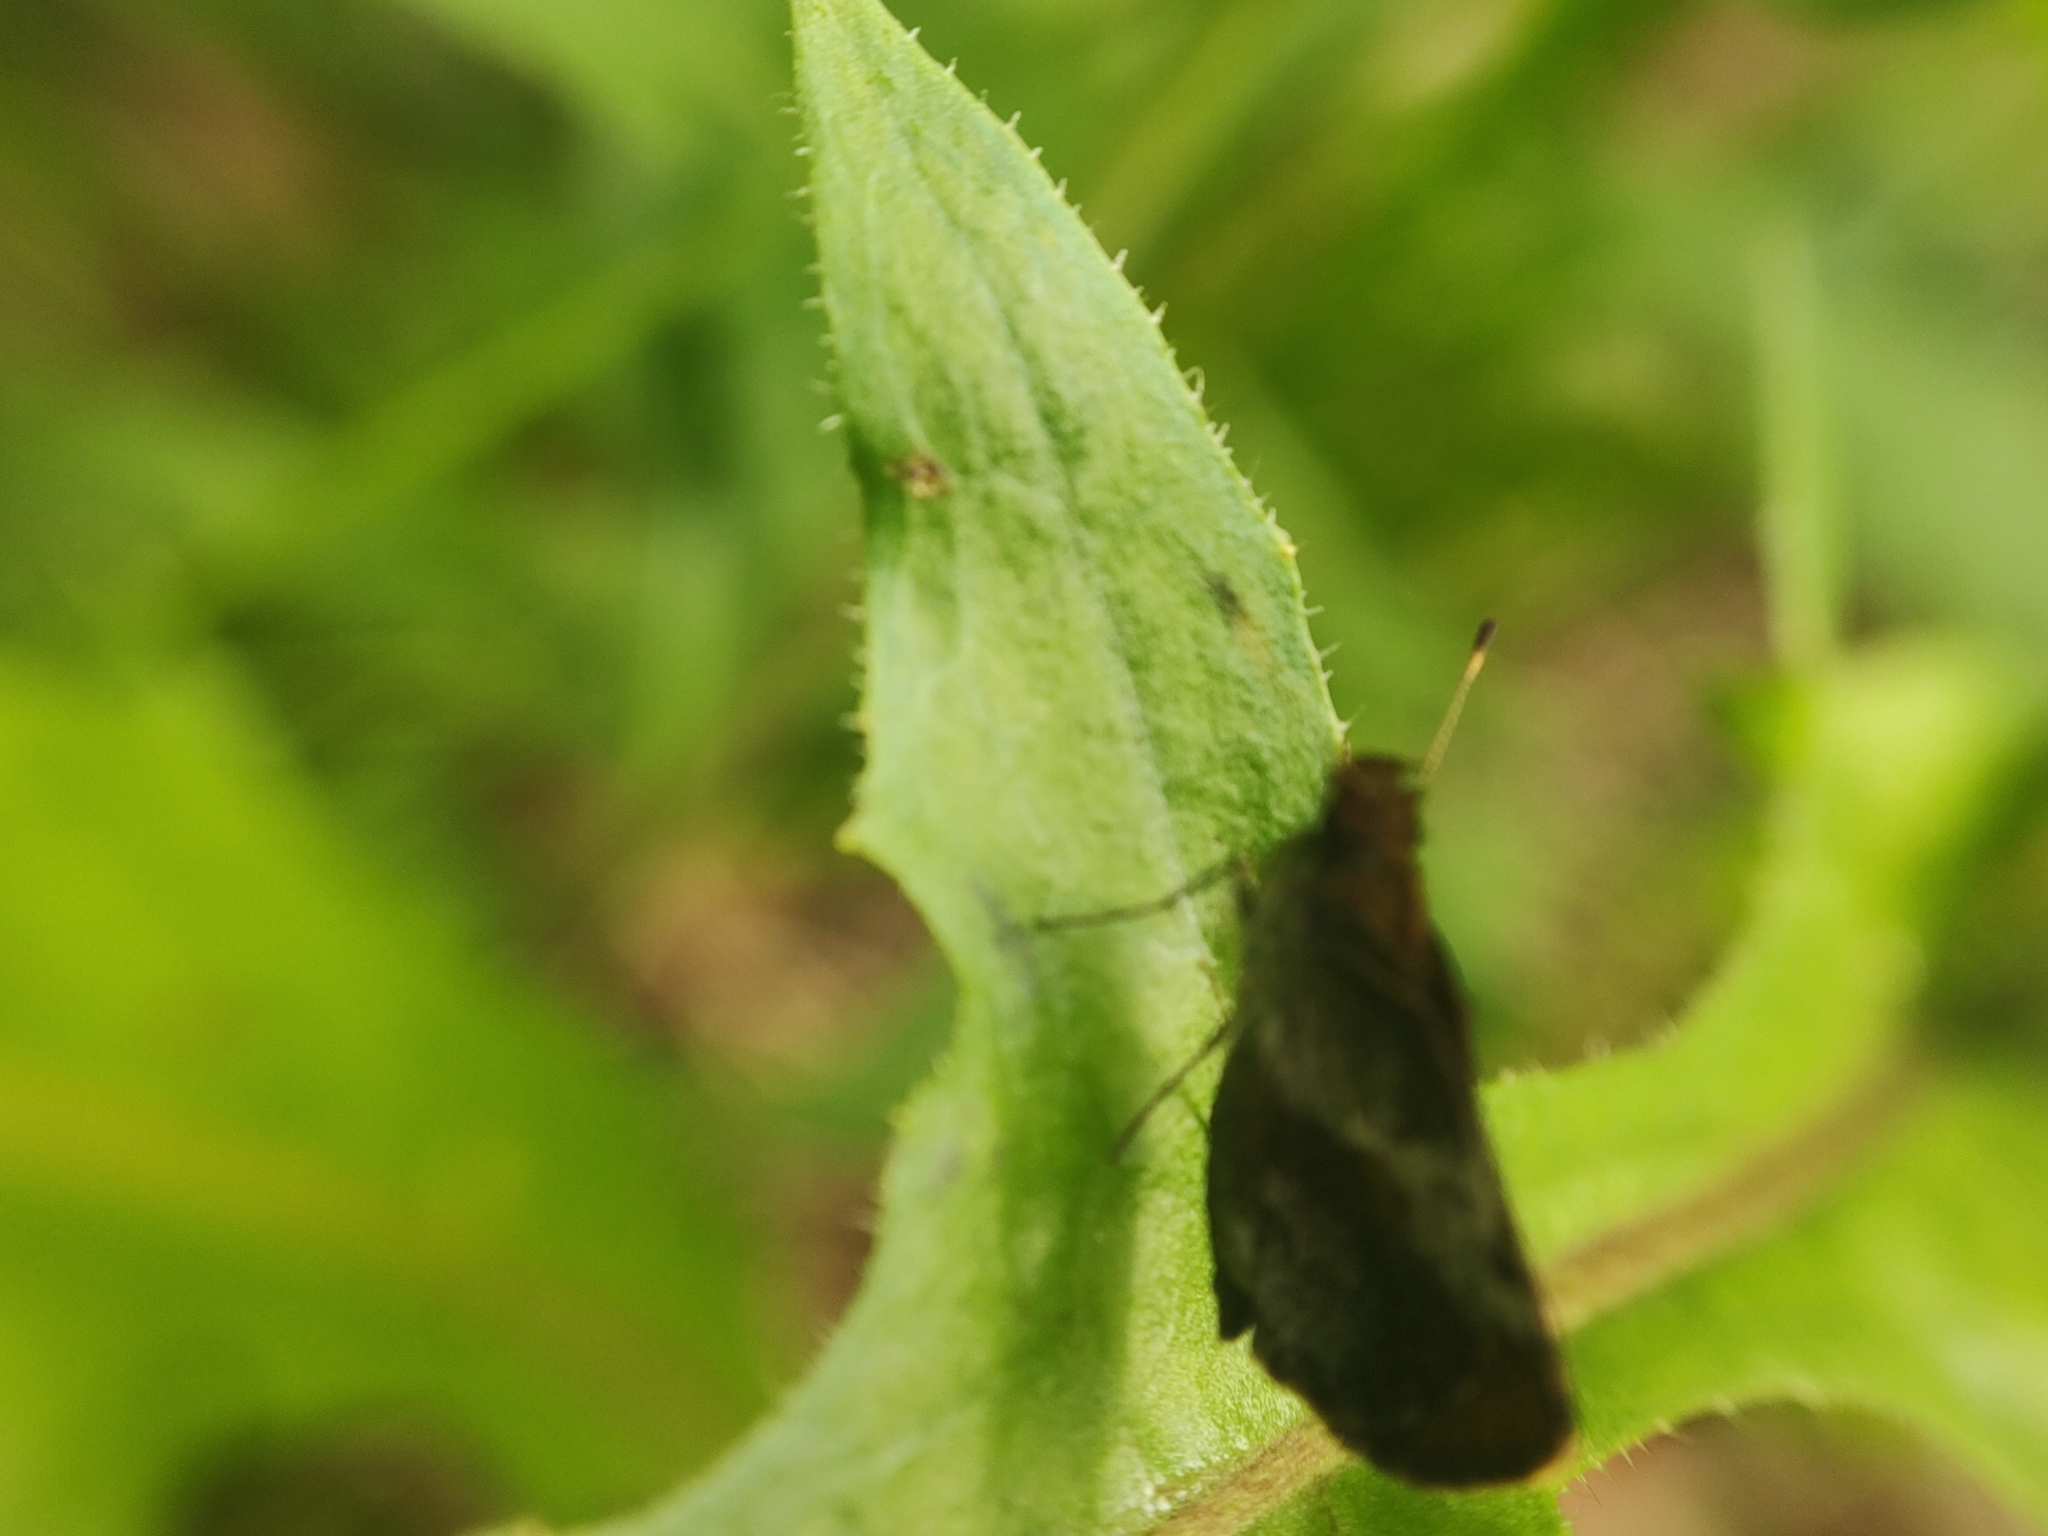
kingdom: Animalia
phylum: Arthropoda
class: Insecta
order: Lepidoptera
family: Hesperiidae
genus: Callimormus
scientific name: Callimormus
